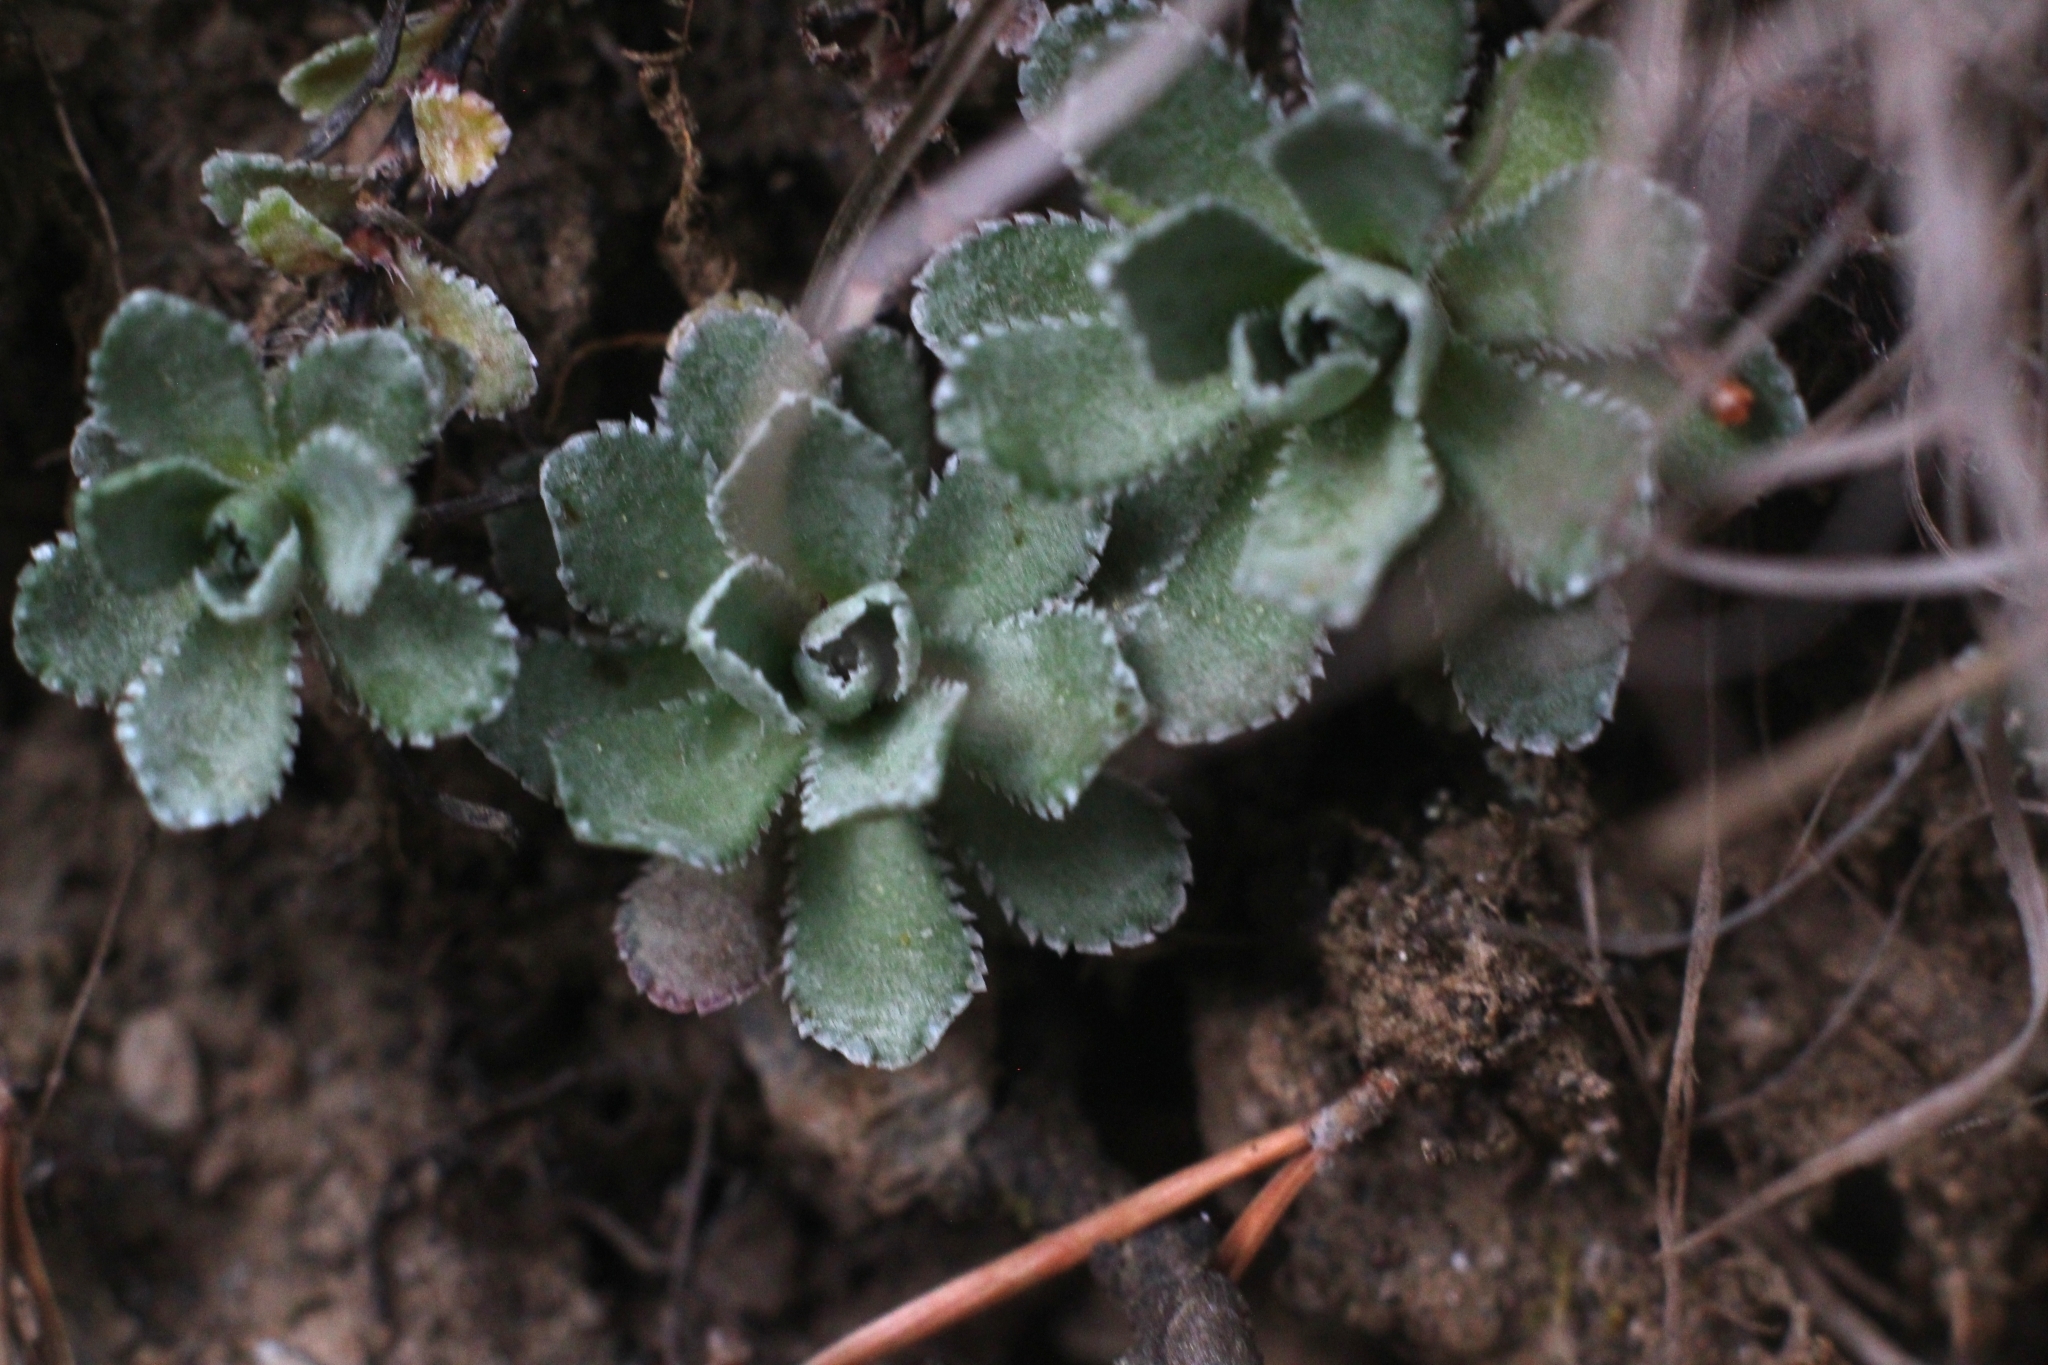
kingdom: Plantae
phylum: Tracheophyta
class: Magnoliopsida
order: Saxifragales
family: Saxifragaceae
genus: Saxifraga
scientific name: Saxifraga paniculata
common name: Livelong saxifrage
